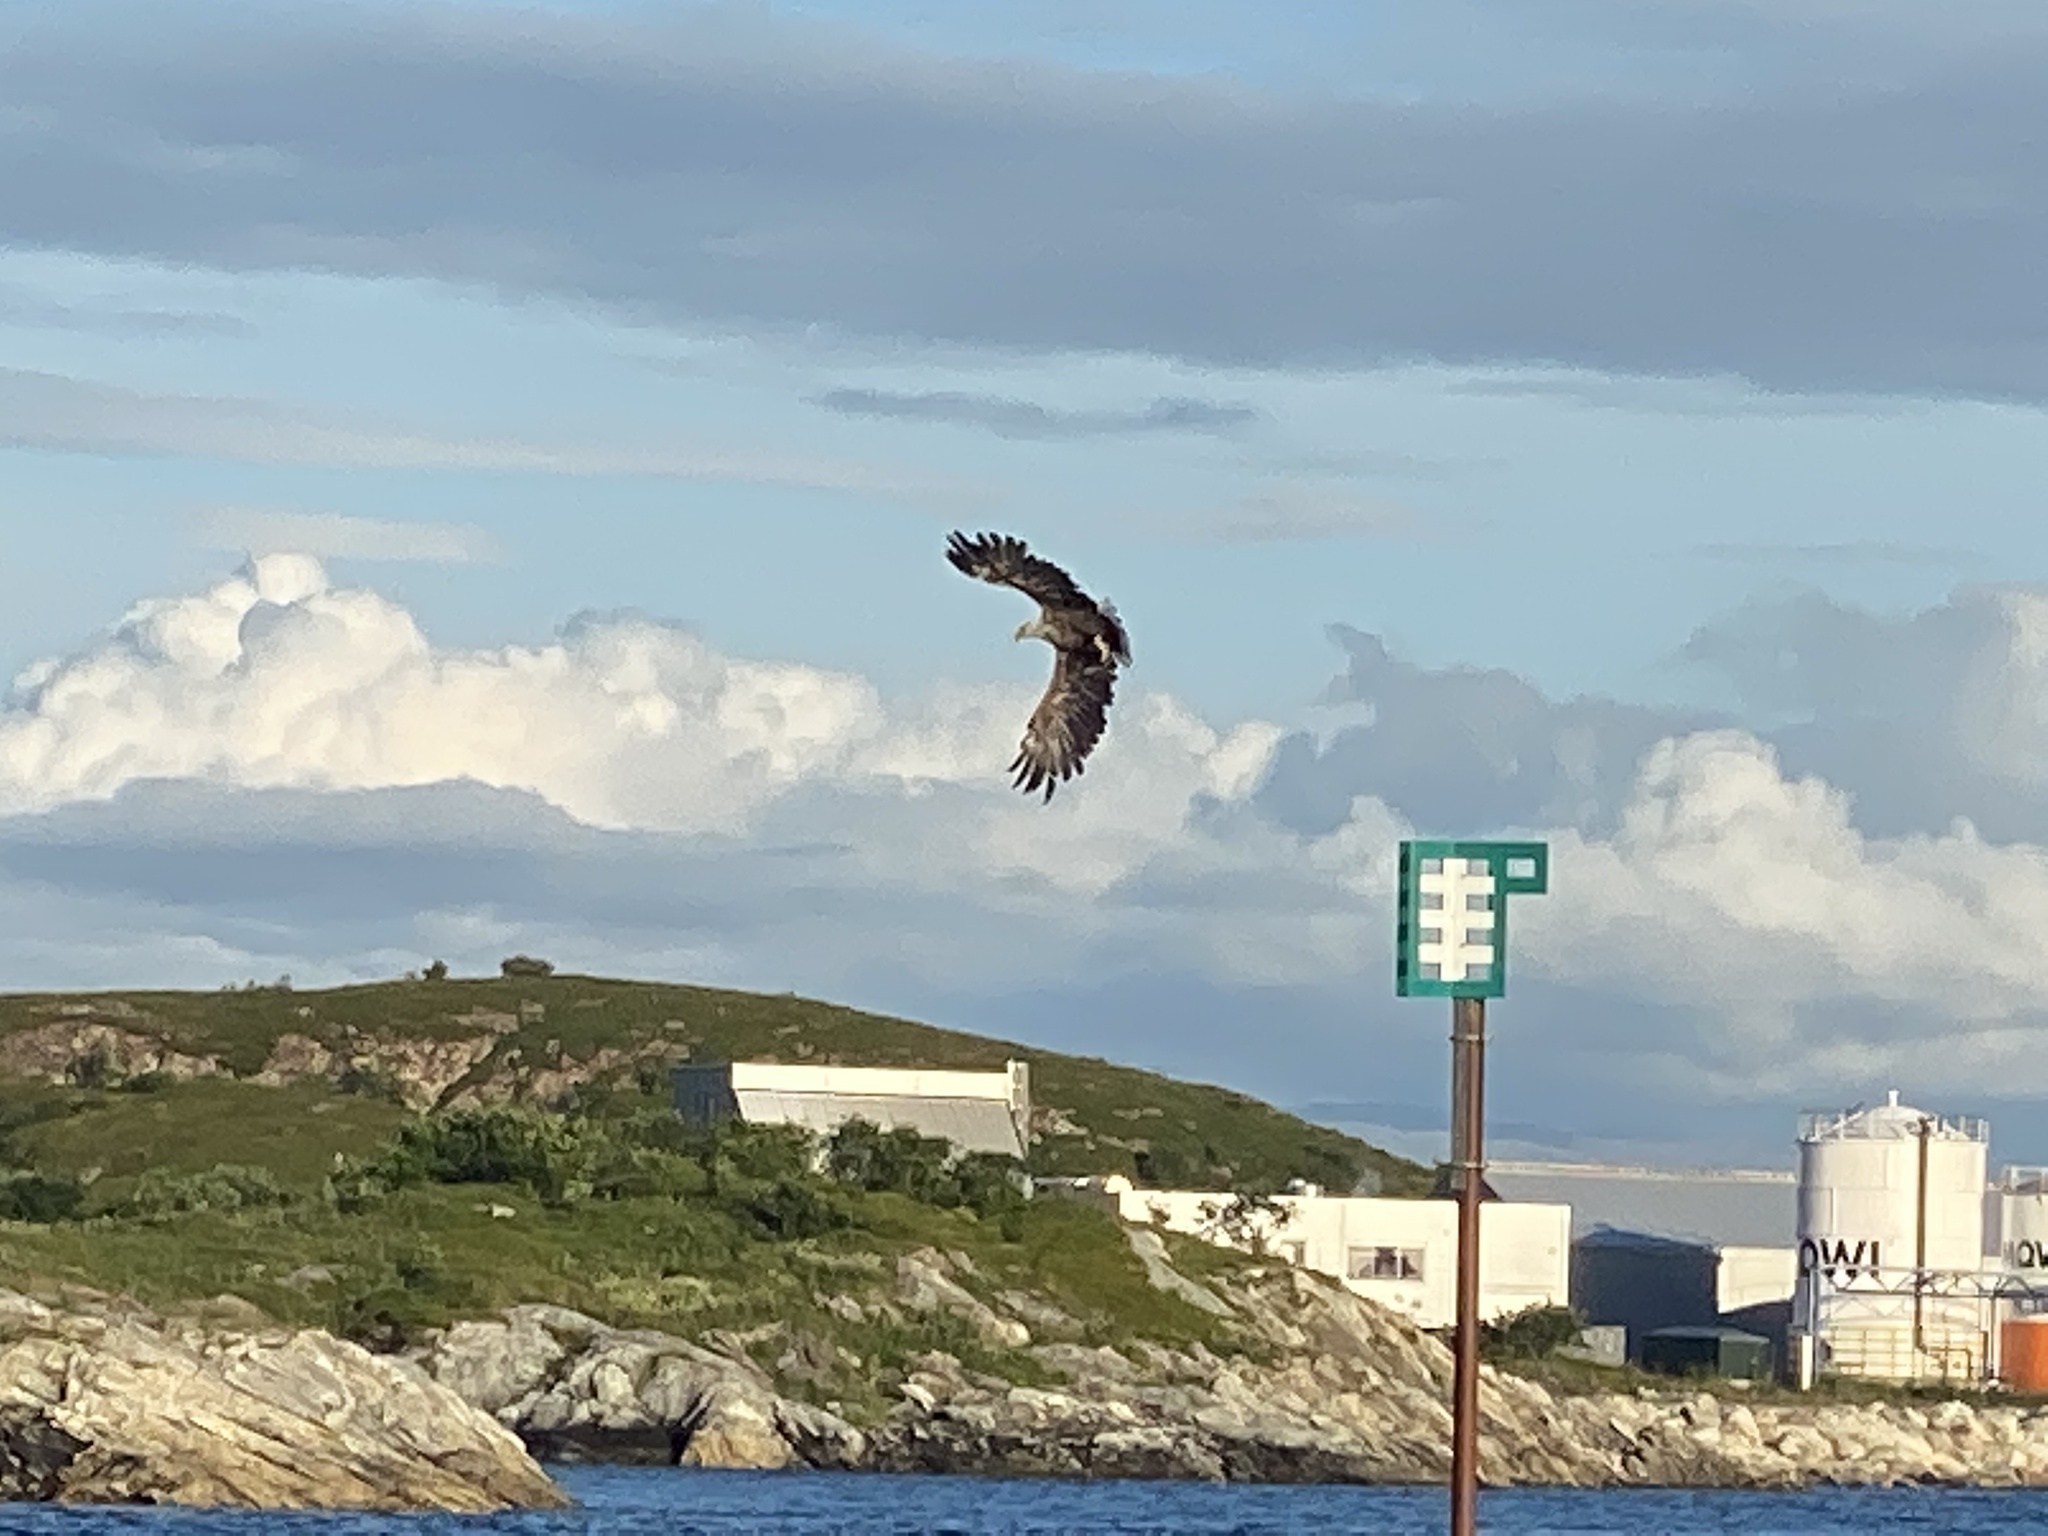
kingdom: Animalia
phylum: Chordata
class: Aves
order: Accipitriformes
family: Accipitridae
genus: Haliaeetus
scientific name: Haliaeetus albicilla
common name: White-tailed eagle
